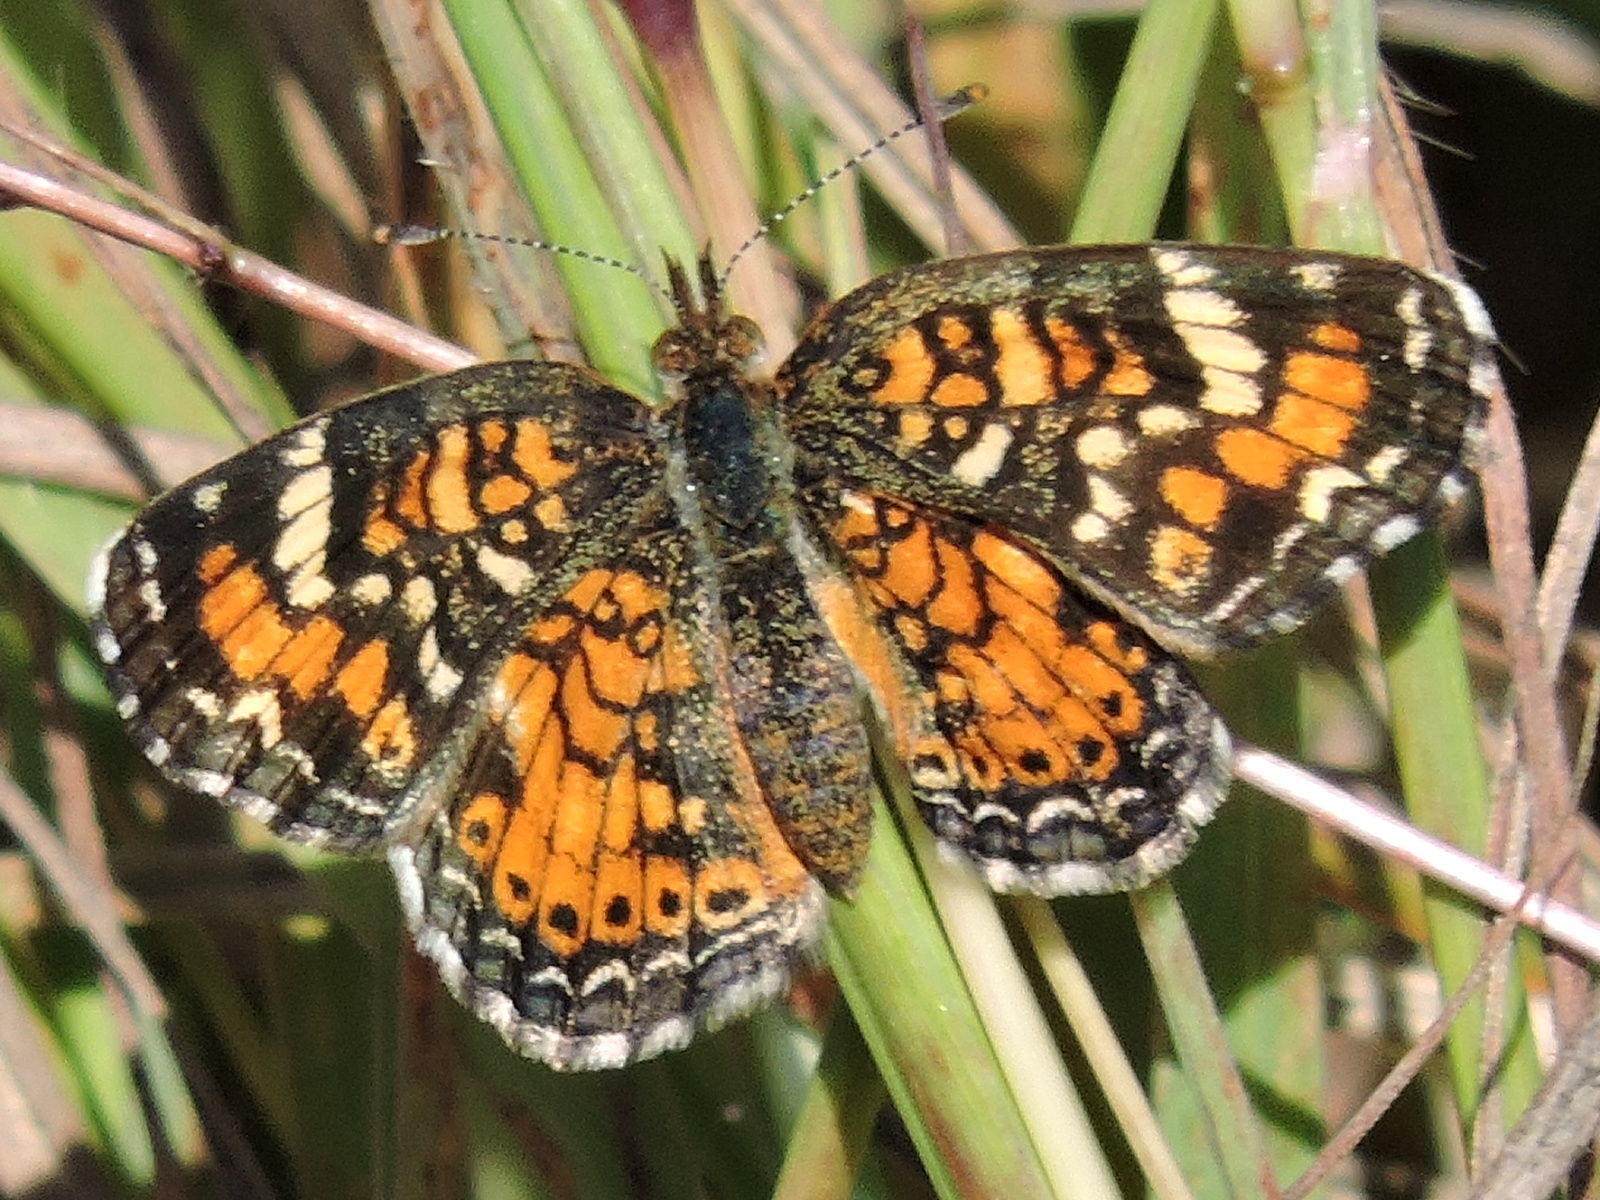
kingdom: Animalia
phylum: Arthropoda
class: Insecta
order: Lepidoptera
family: Nymphalidae
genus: Phyciodes
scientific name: Phyciodes phaon
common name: Phaon crescent
